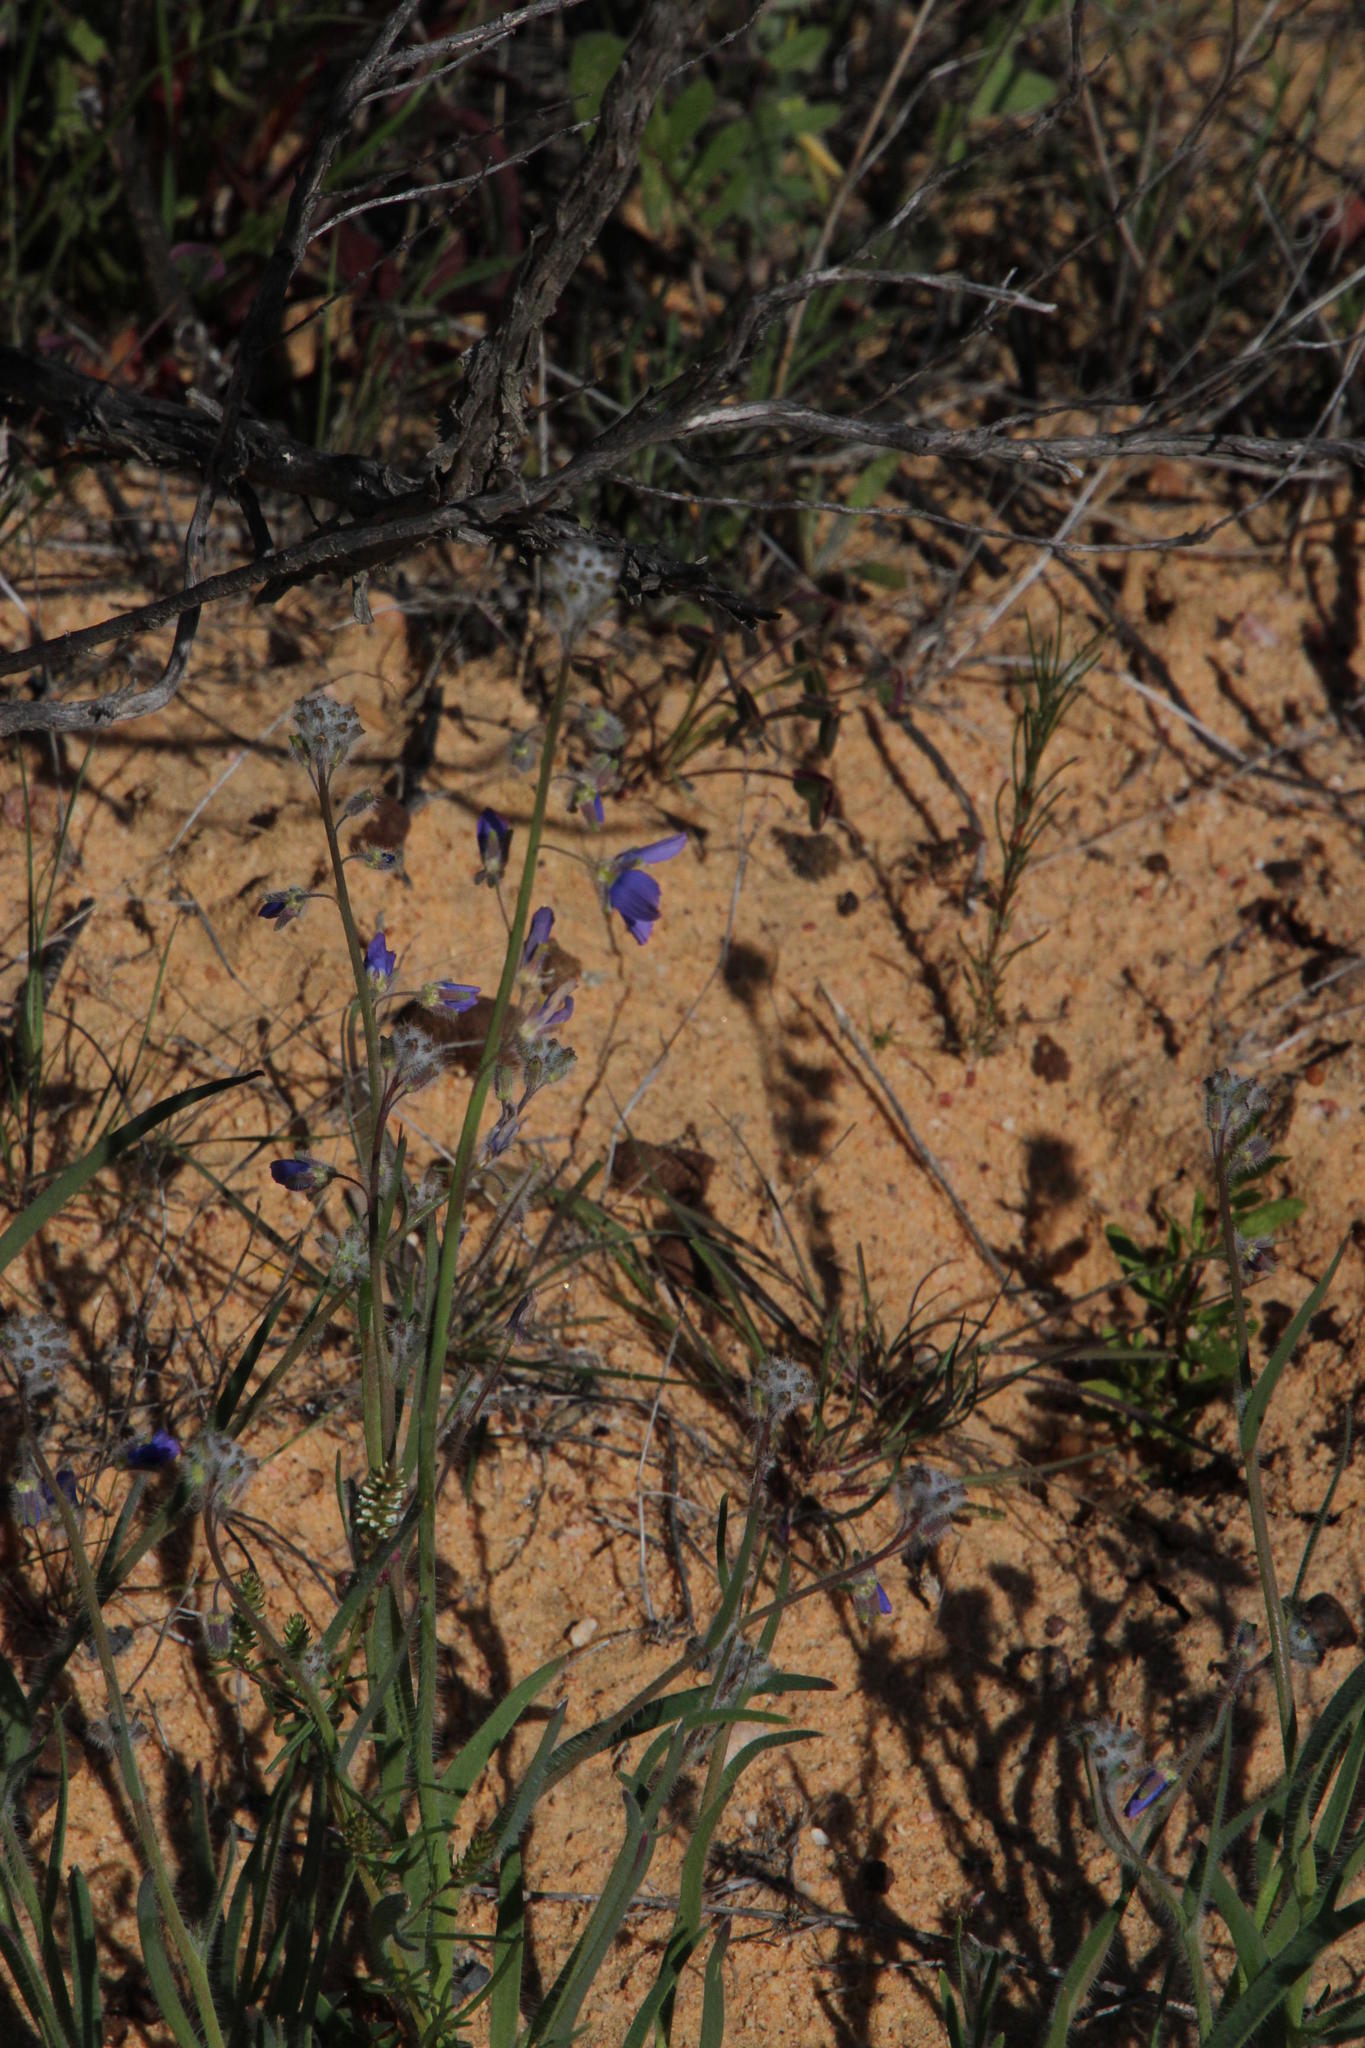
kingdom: Plantae
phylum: Tracheophyta
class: Magnoliopsida
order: Brassicales
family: Brassicaceae
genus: Heliophila
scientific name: Heliophila africana
